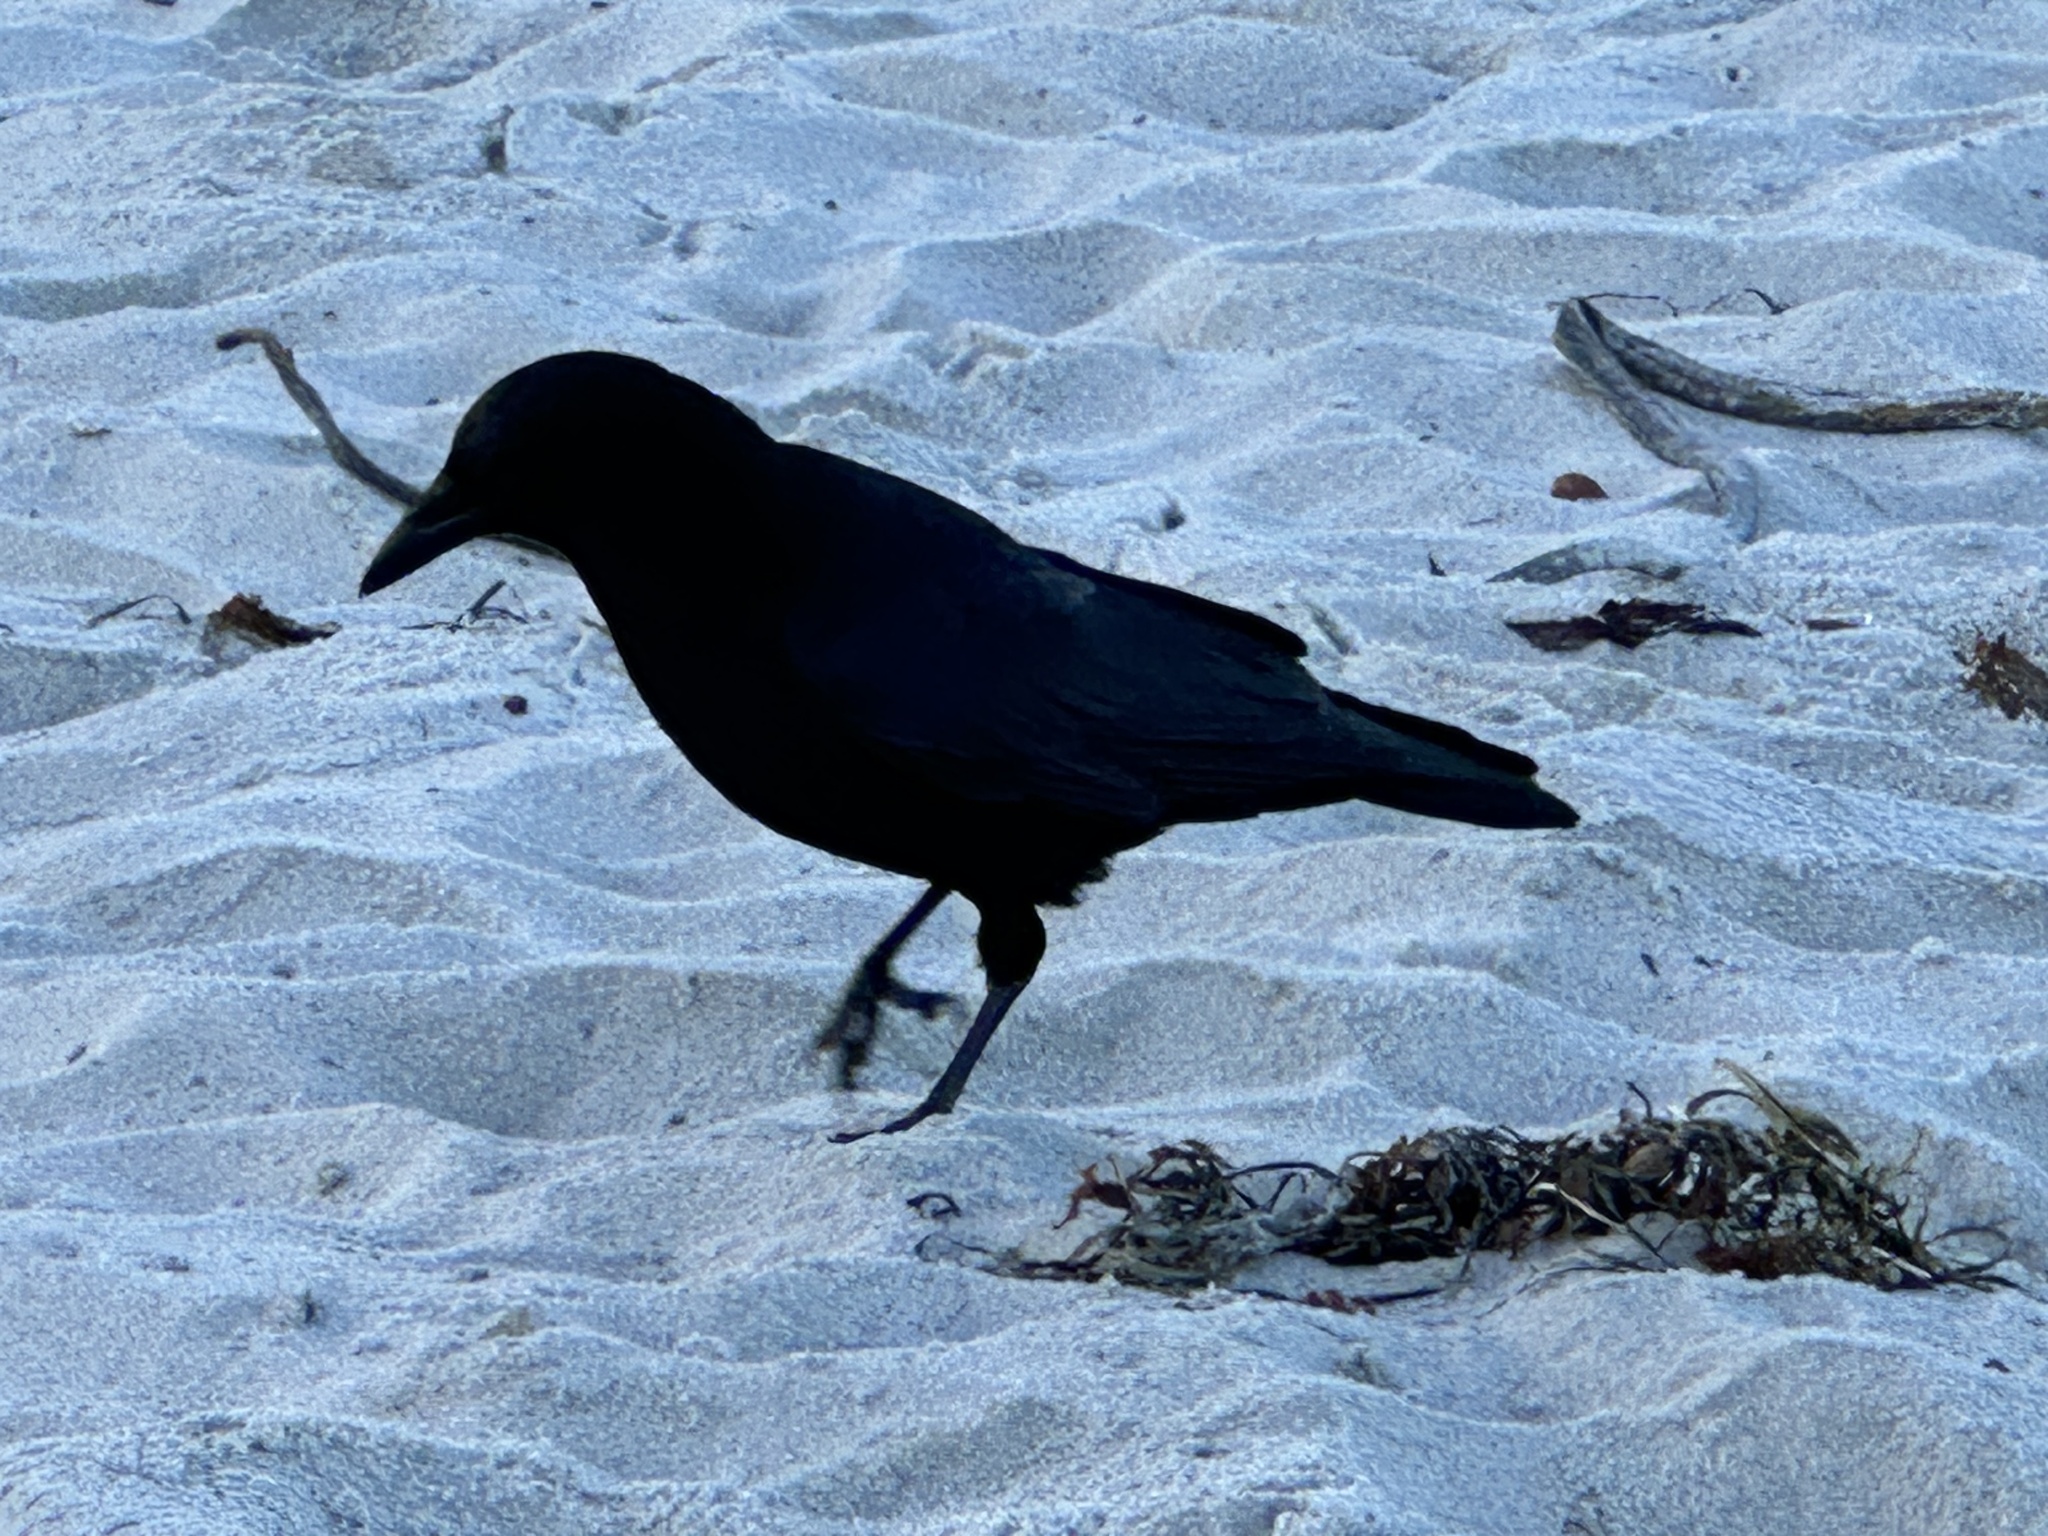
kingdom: Animalia
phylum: Chordata
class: Aves
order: Passeriformes
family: Corvidae
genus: Corvus
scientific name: Corvus brachyrhynchos
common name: American crow
